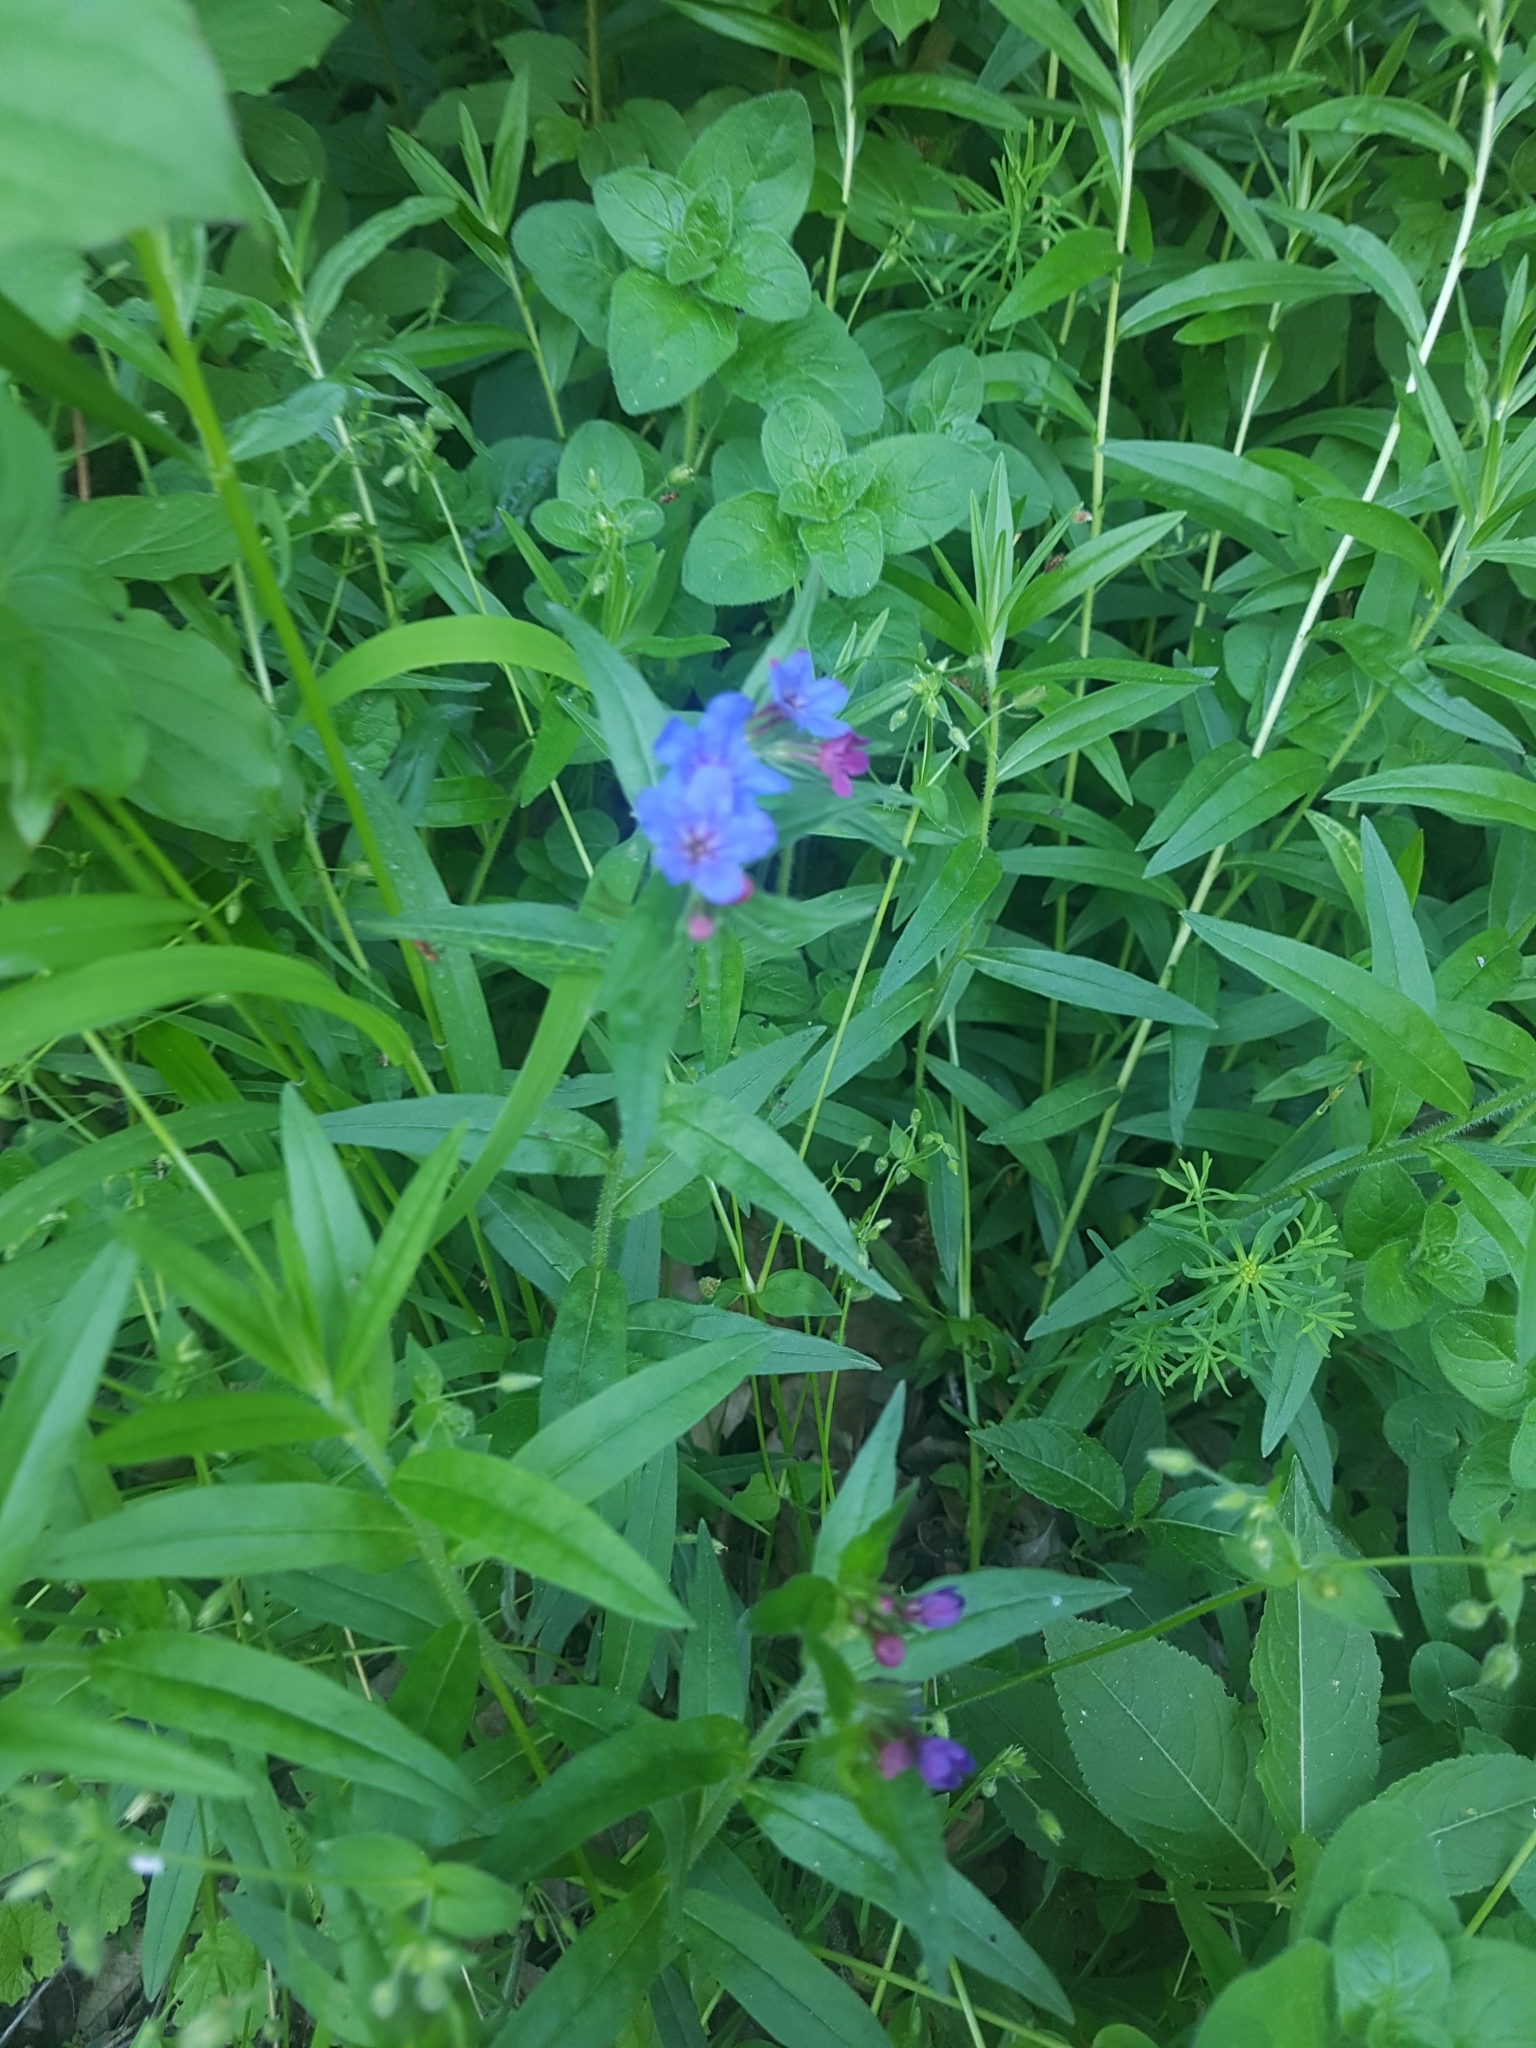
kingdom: Plantae
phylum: Tracheophyta
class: Magnoliopsida
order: Boraginales
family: Boraginaceae
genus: Aegonychon
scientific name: Aegonychon purpurocaeruleum
